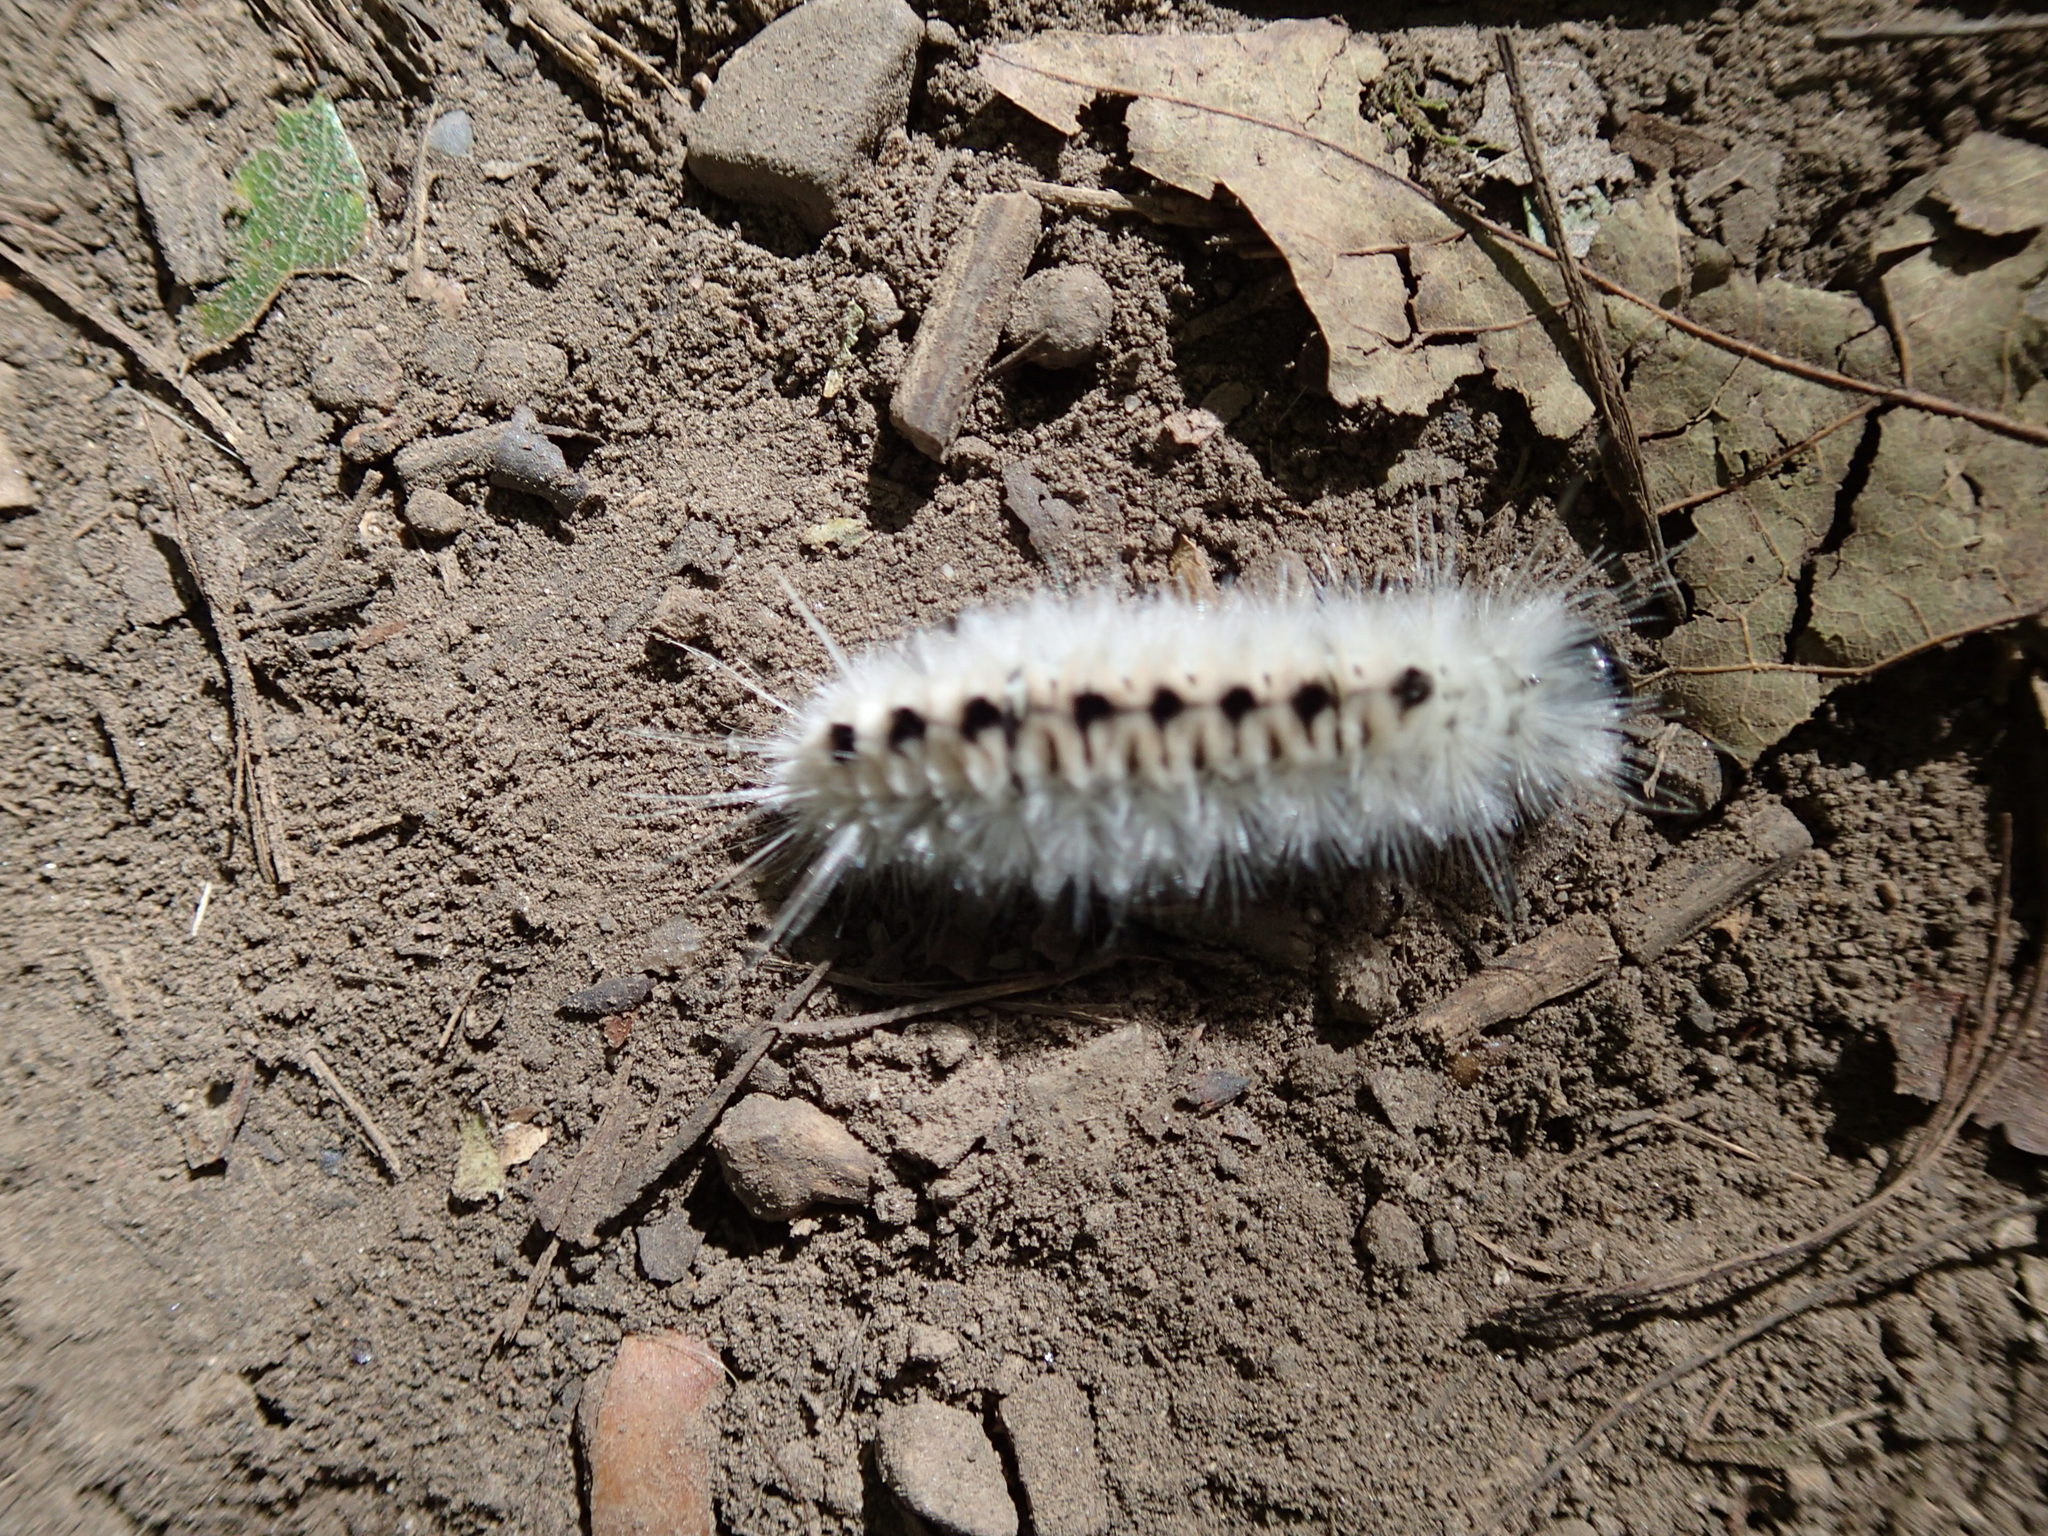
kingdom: Animalia
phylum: Arthropoda
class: Insecta
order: Lepidoptera
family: Erebidae
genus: Lophocampa
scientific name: Lophocampa caryae
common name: Hickory tussock moth
